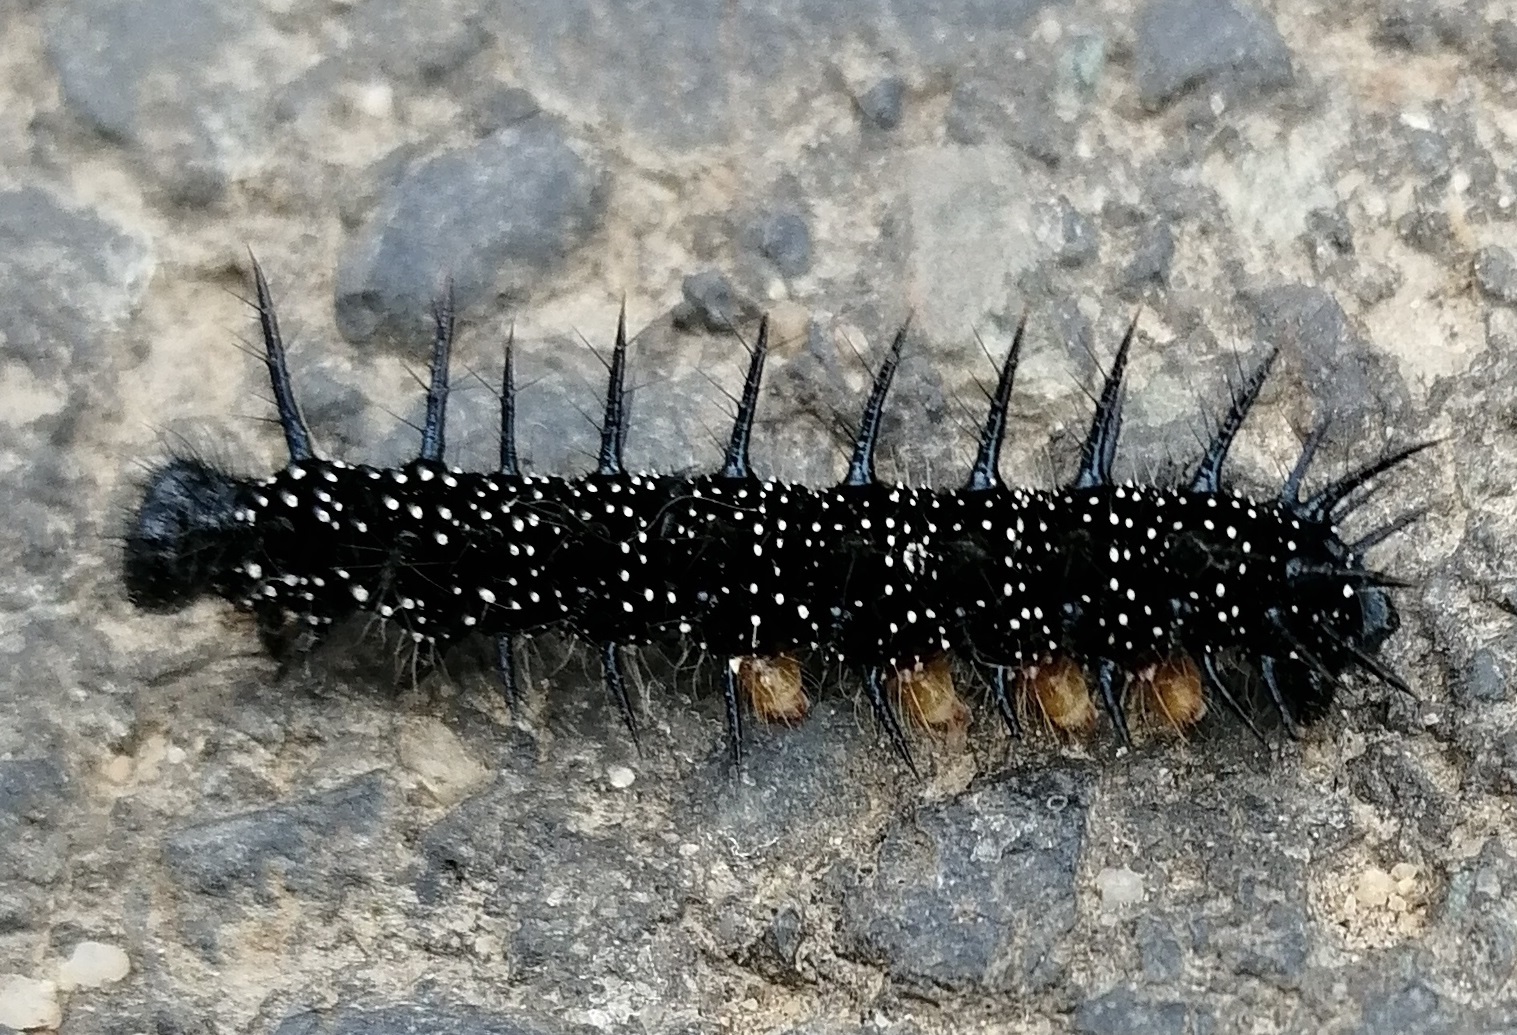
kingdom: Animalia
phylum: Arthropoda
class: Insecta
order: Lepidoptera
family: Nymphalidae
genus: Aglais
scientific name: Aglais io
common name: Peacock
